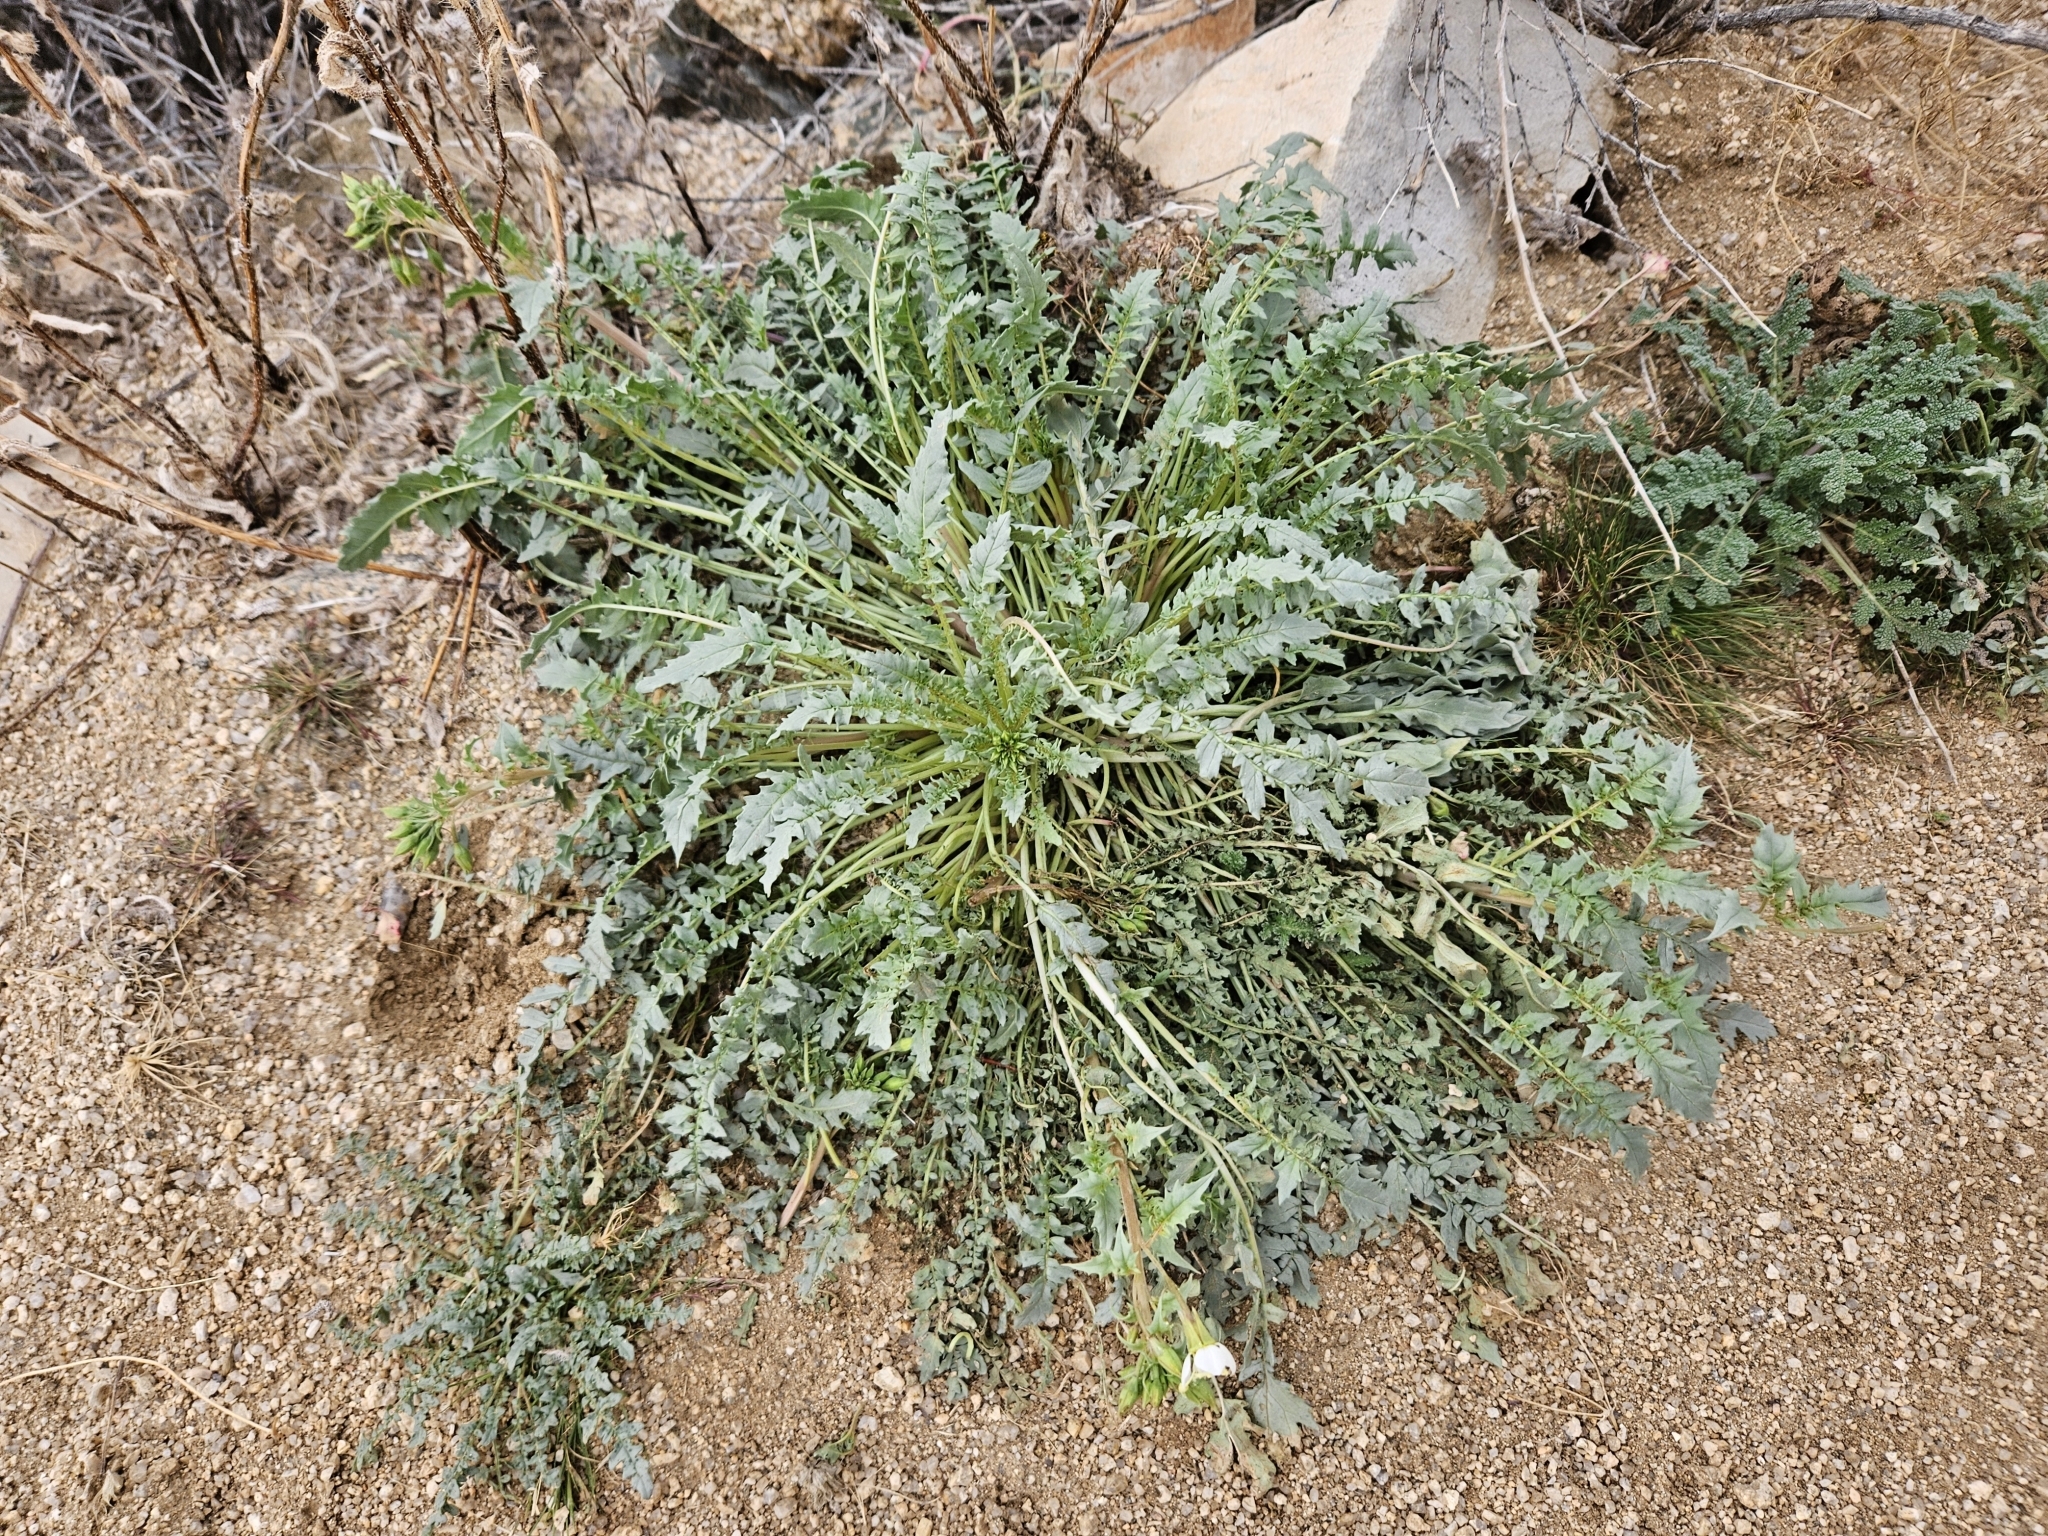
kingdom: Plantae
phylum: Tracheophyta
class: Magnoliopsida
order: Myrtales
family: Onagraceae
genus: Chylismia
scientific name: Chylismia claviformis
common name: Browneyes
